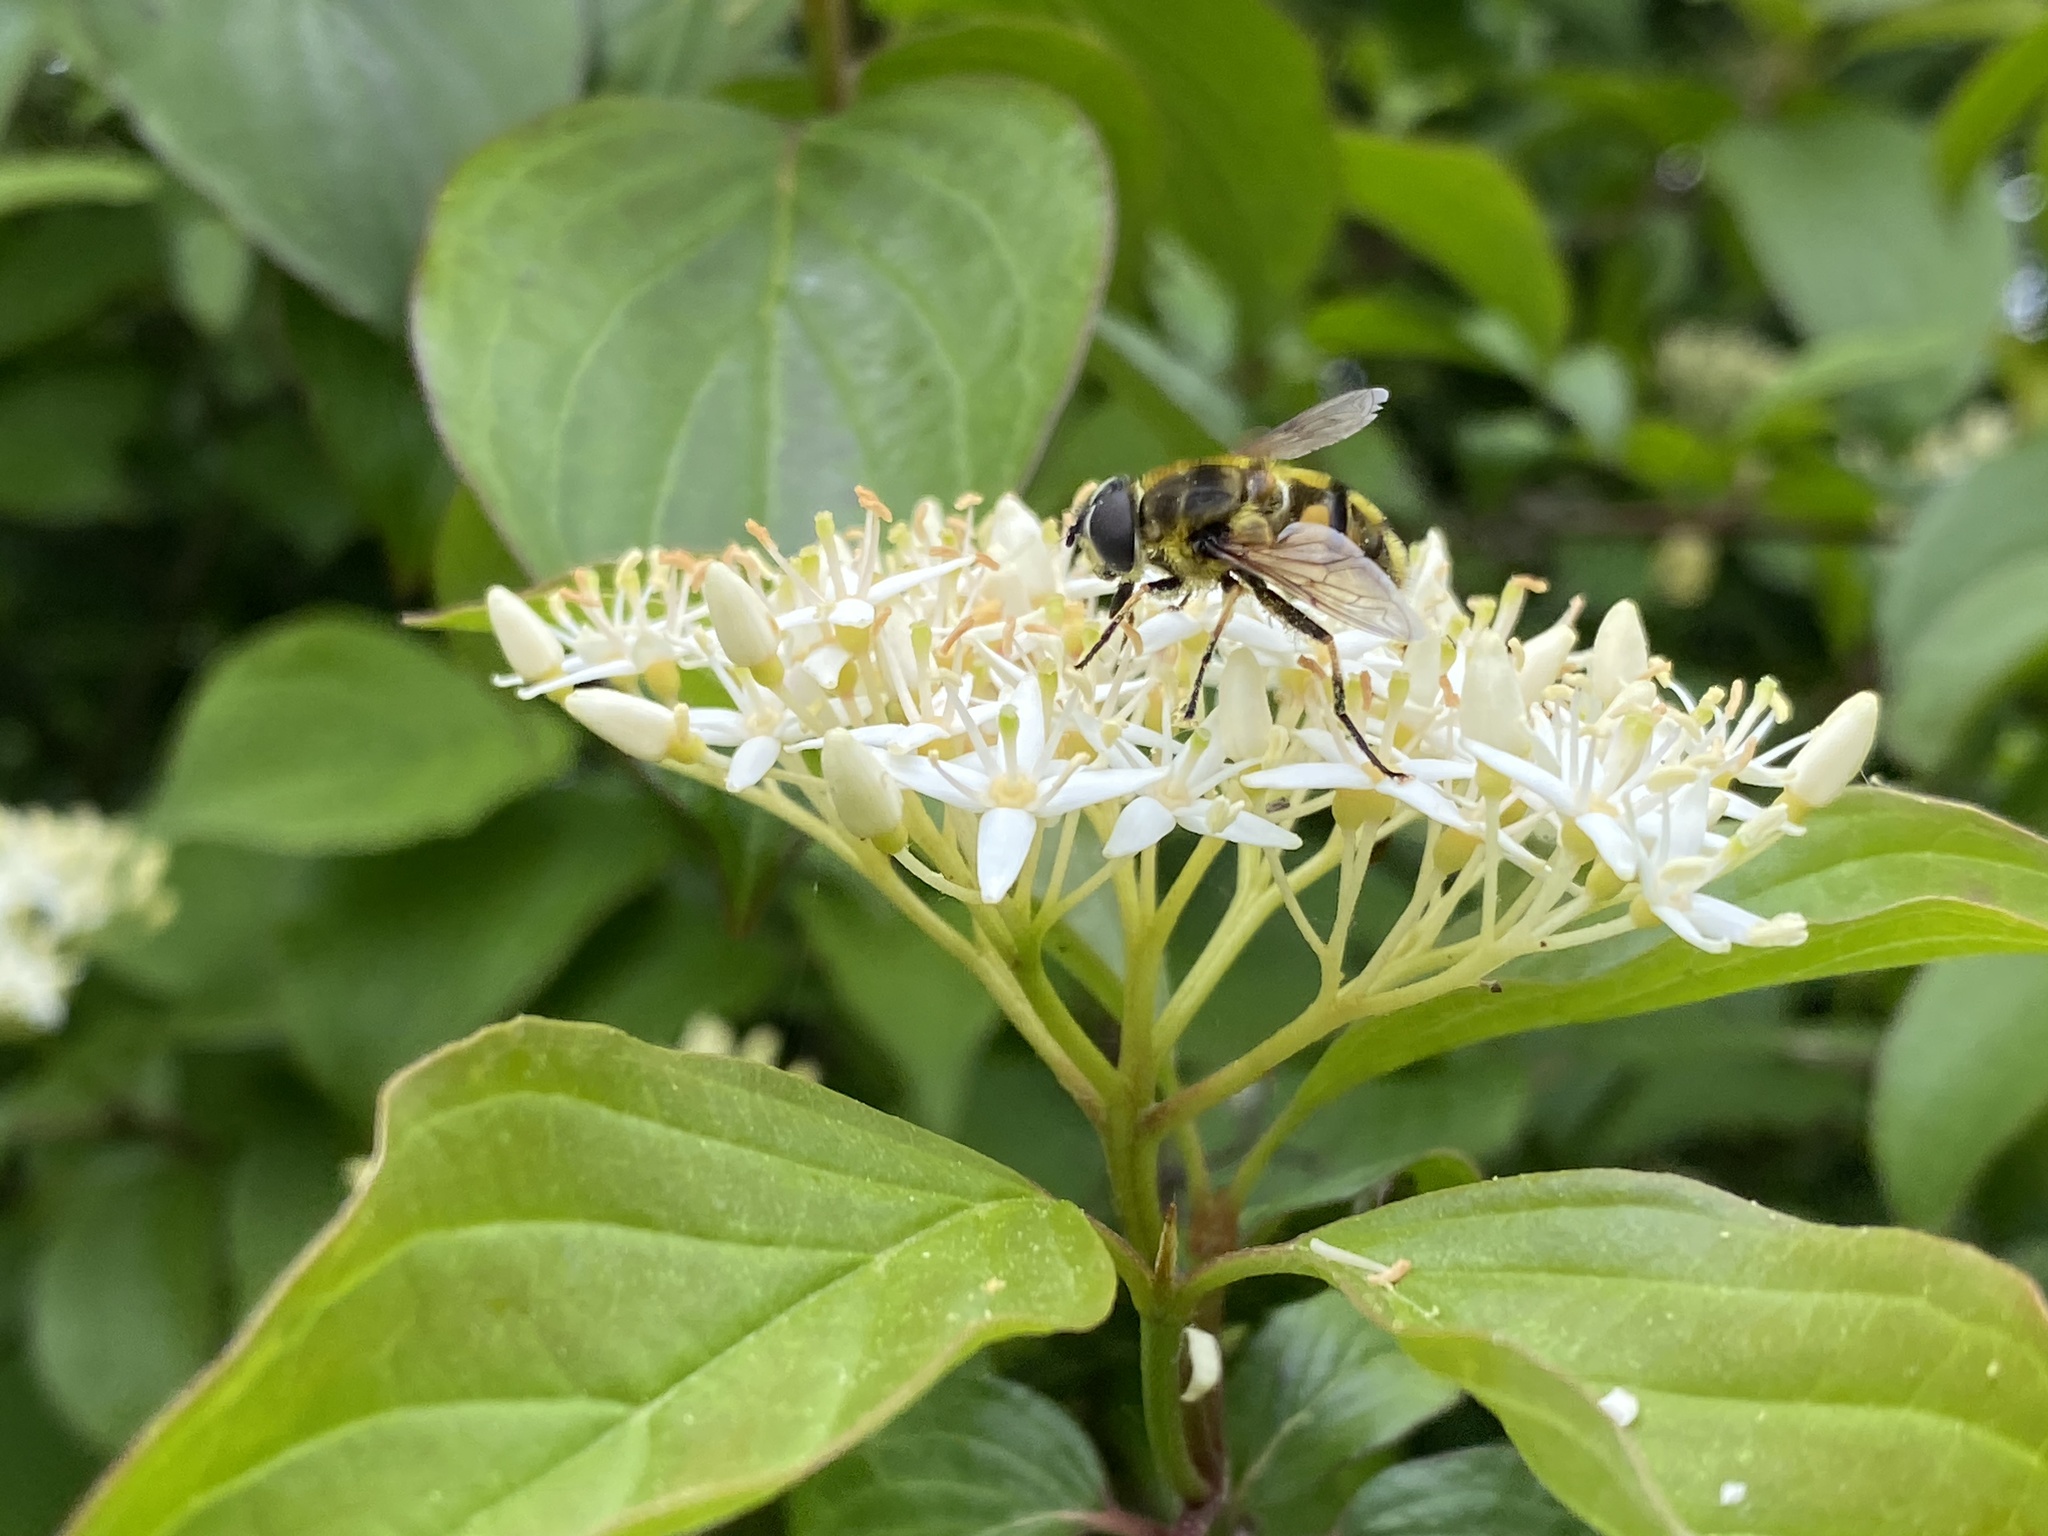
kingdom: Animalia
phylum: Arthropoda
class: Insecta
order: Diptera
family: Syrphidae
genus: Myathropa
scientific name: Myathropa florea
